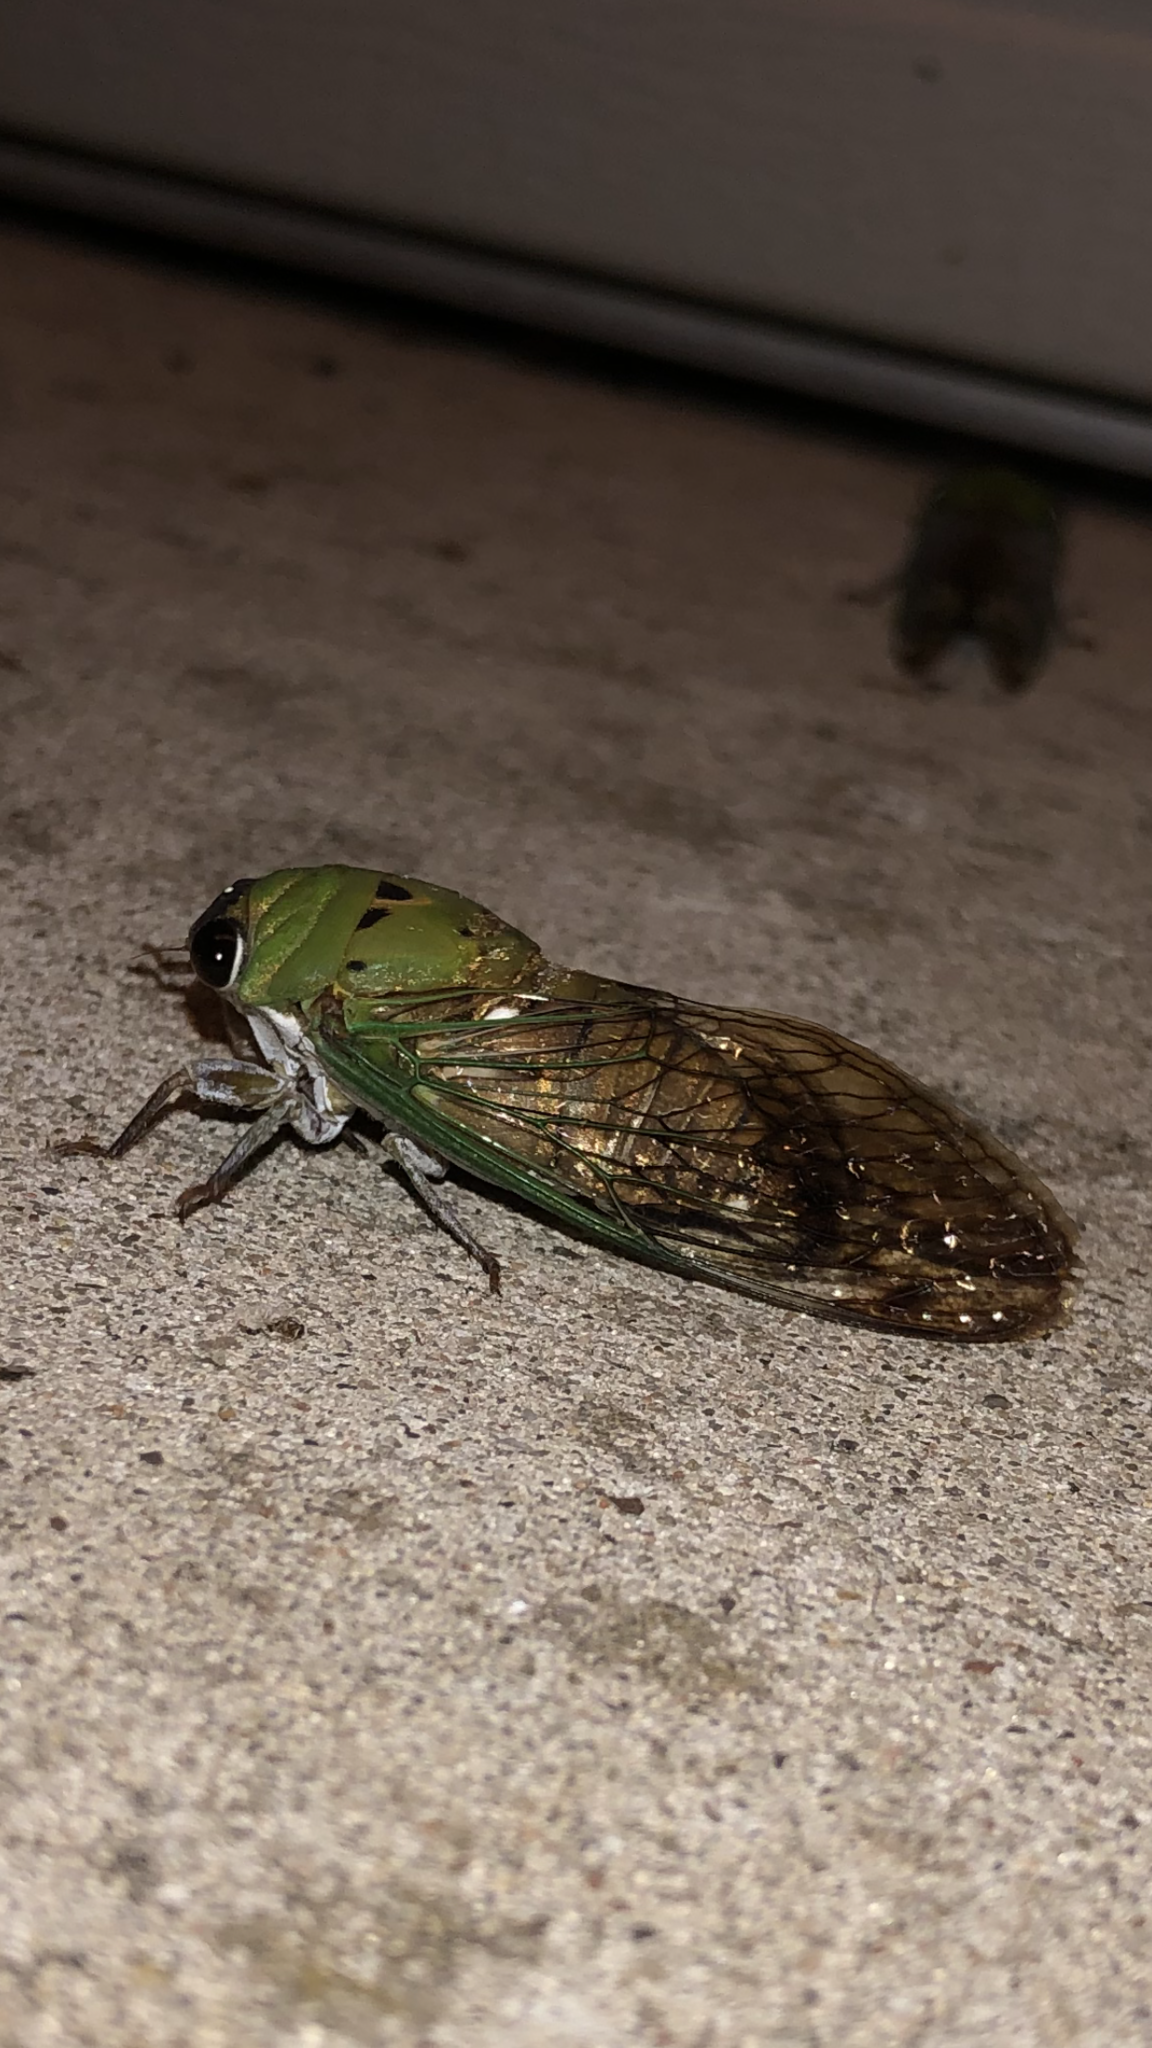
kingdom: Animalia
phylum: Arthropoda
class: Insecta
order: Hemiptera
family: Cicadidae
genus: Neotibicen
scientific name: Neotibicen superbus
